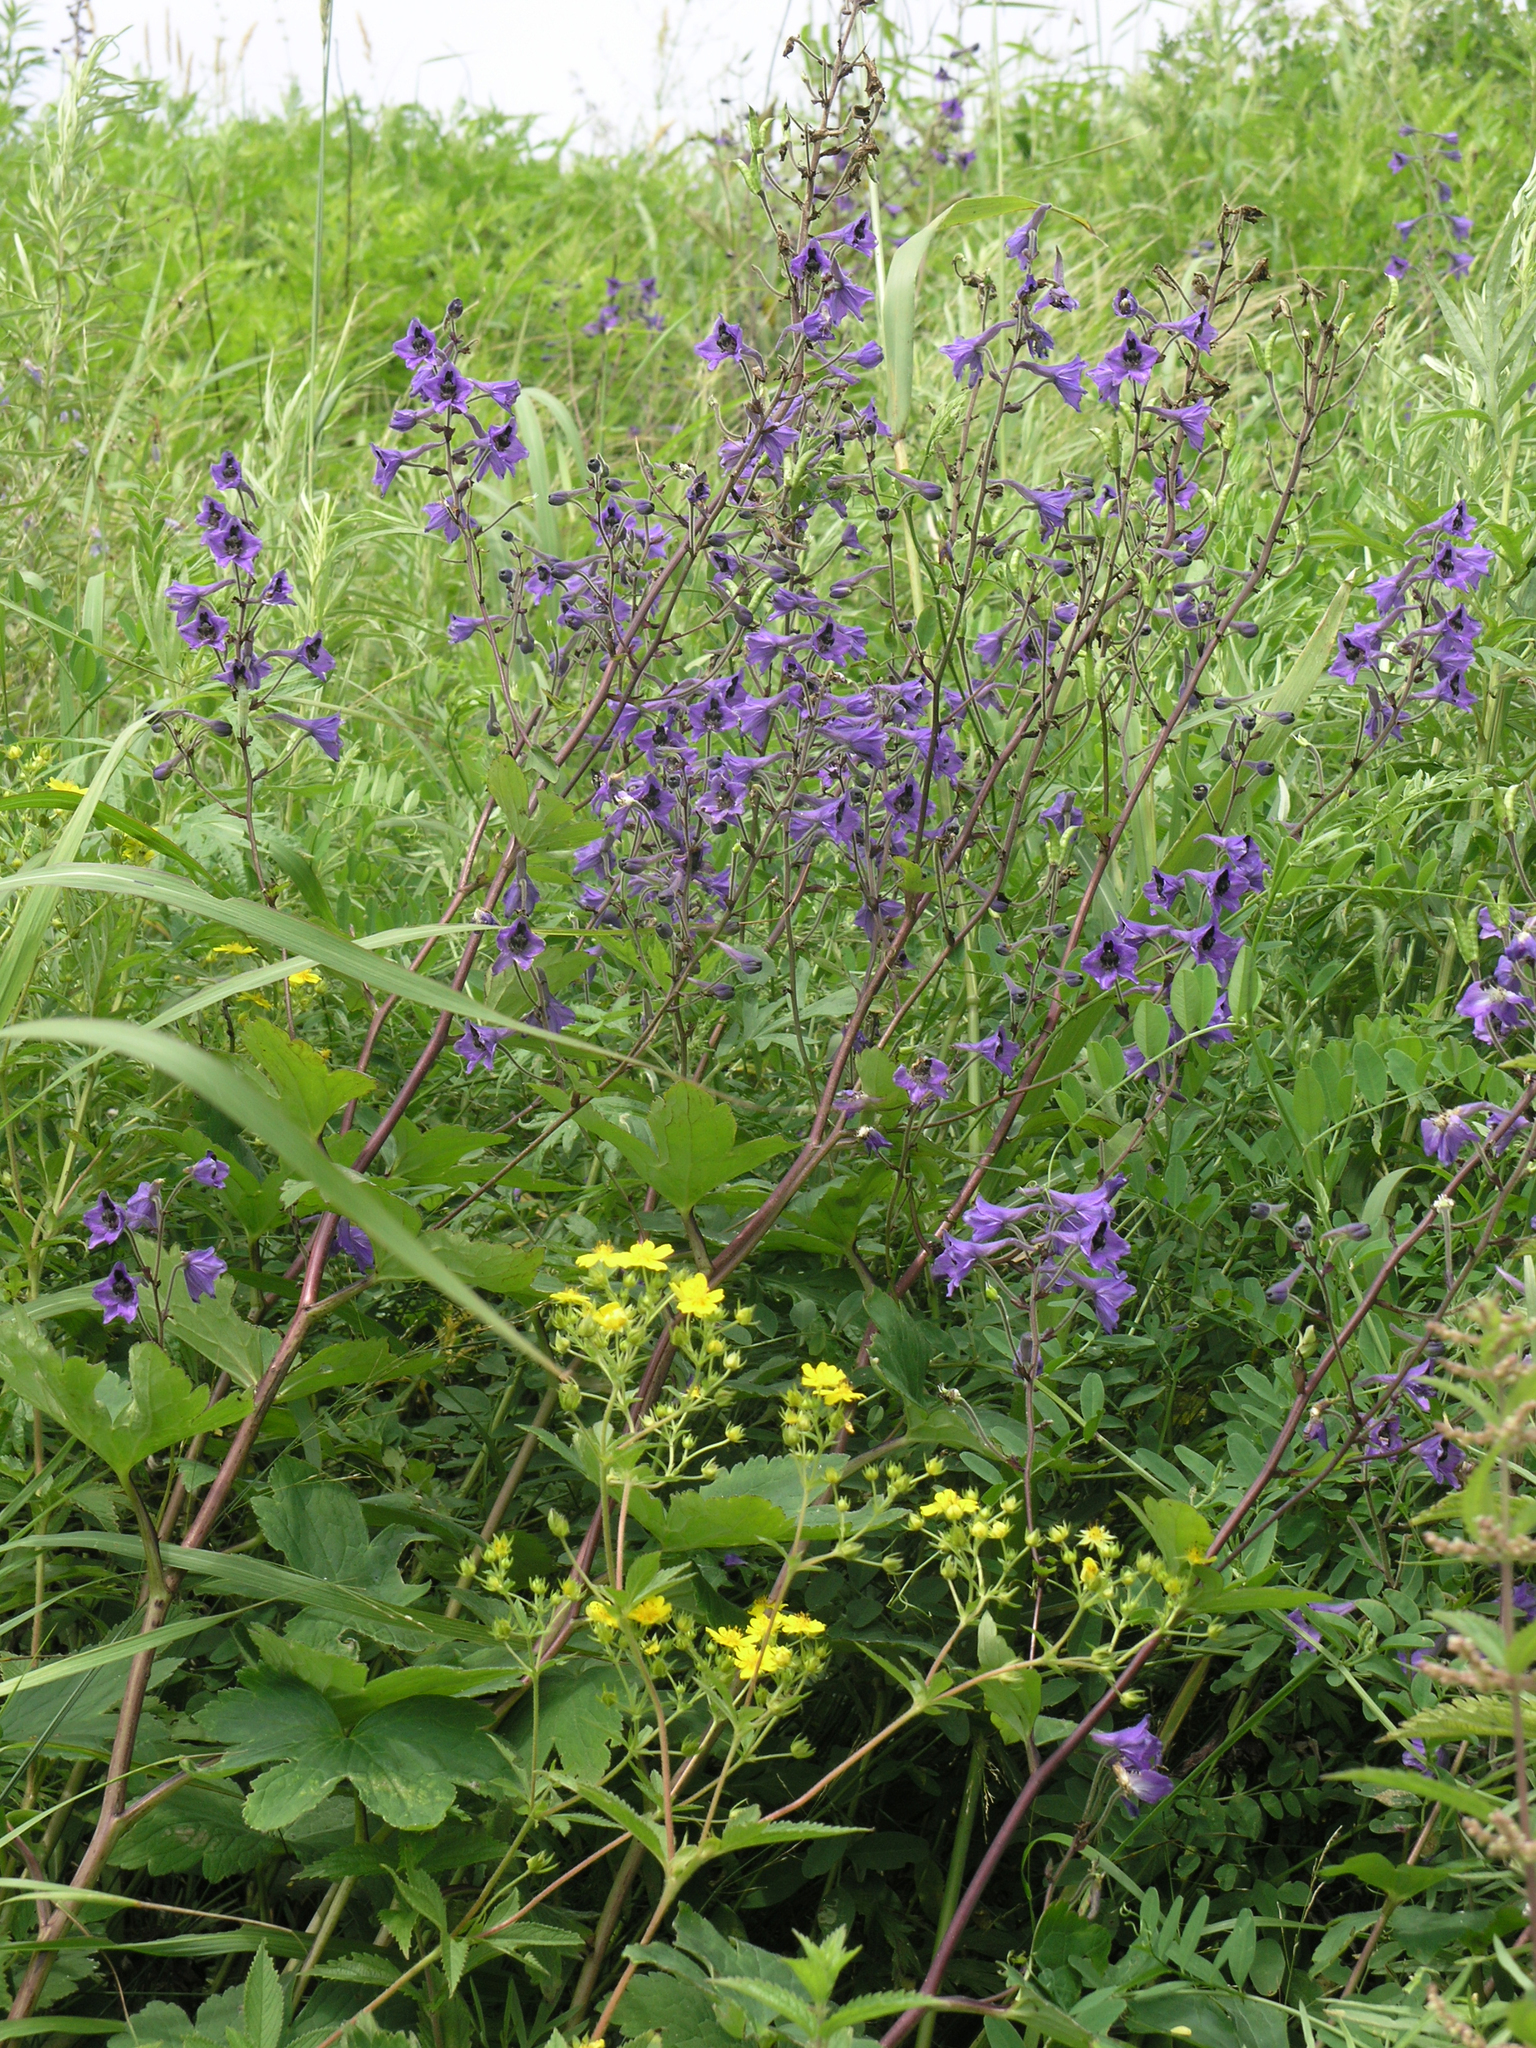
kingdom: Plantae
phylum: Tracheophyta
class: Magnoliopsida
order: Rosales
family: Rosaceae
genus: Potentilla
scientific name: Potentilla cryptotaeniae
